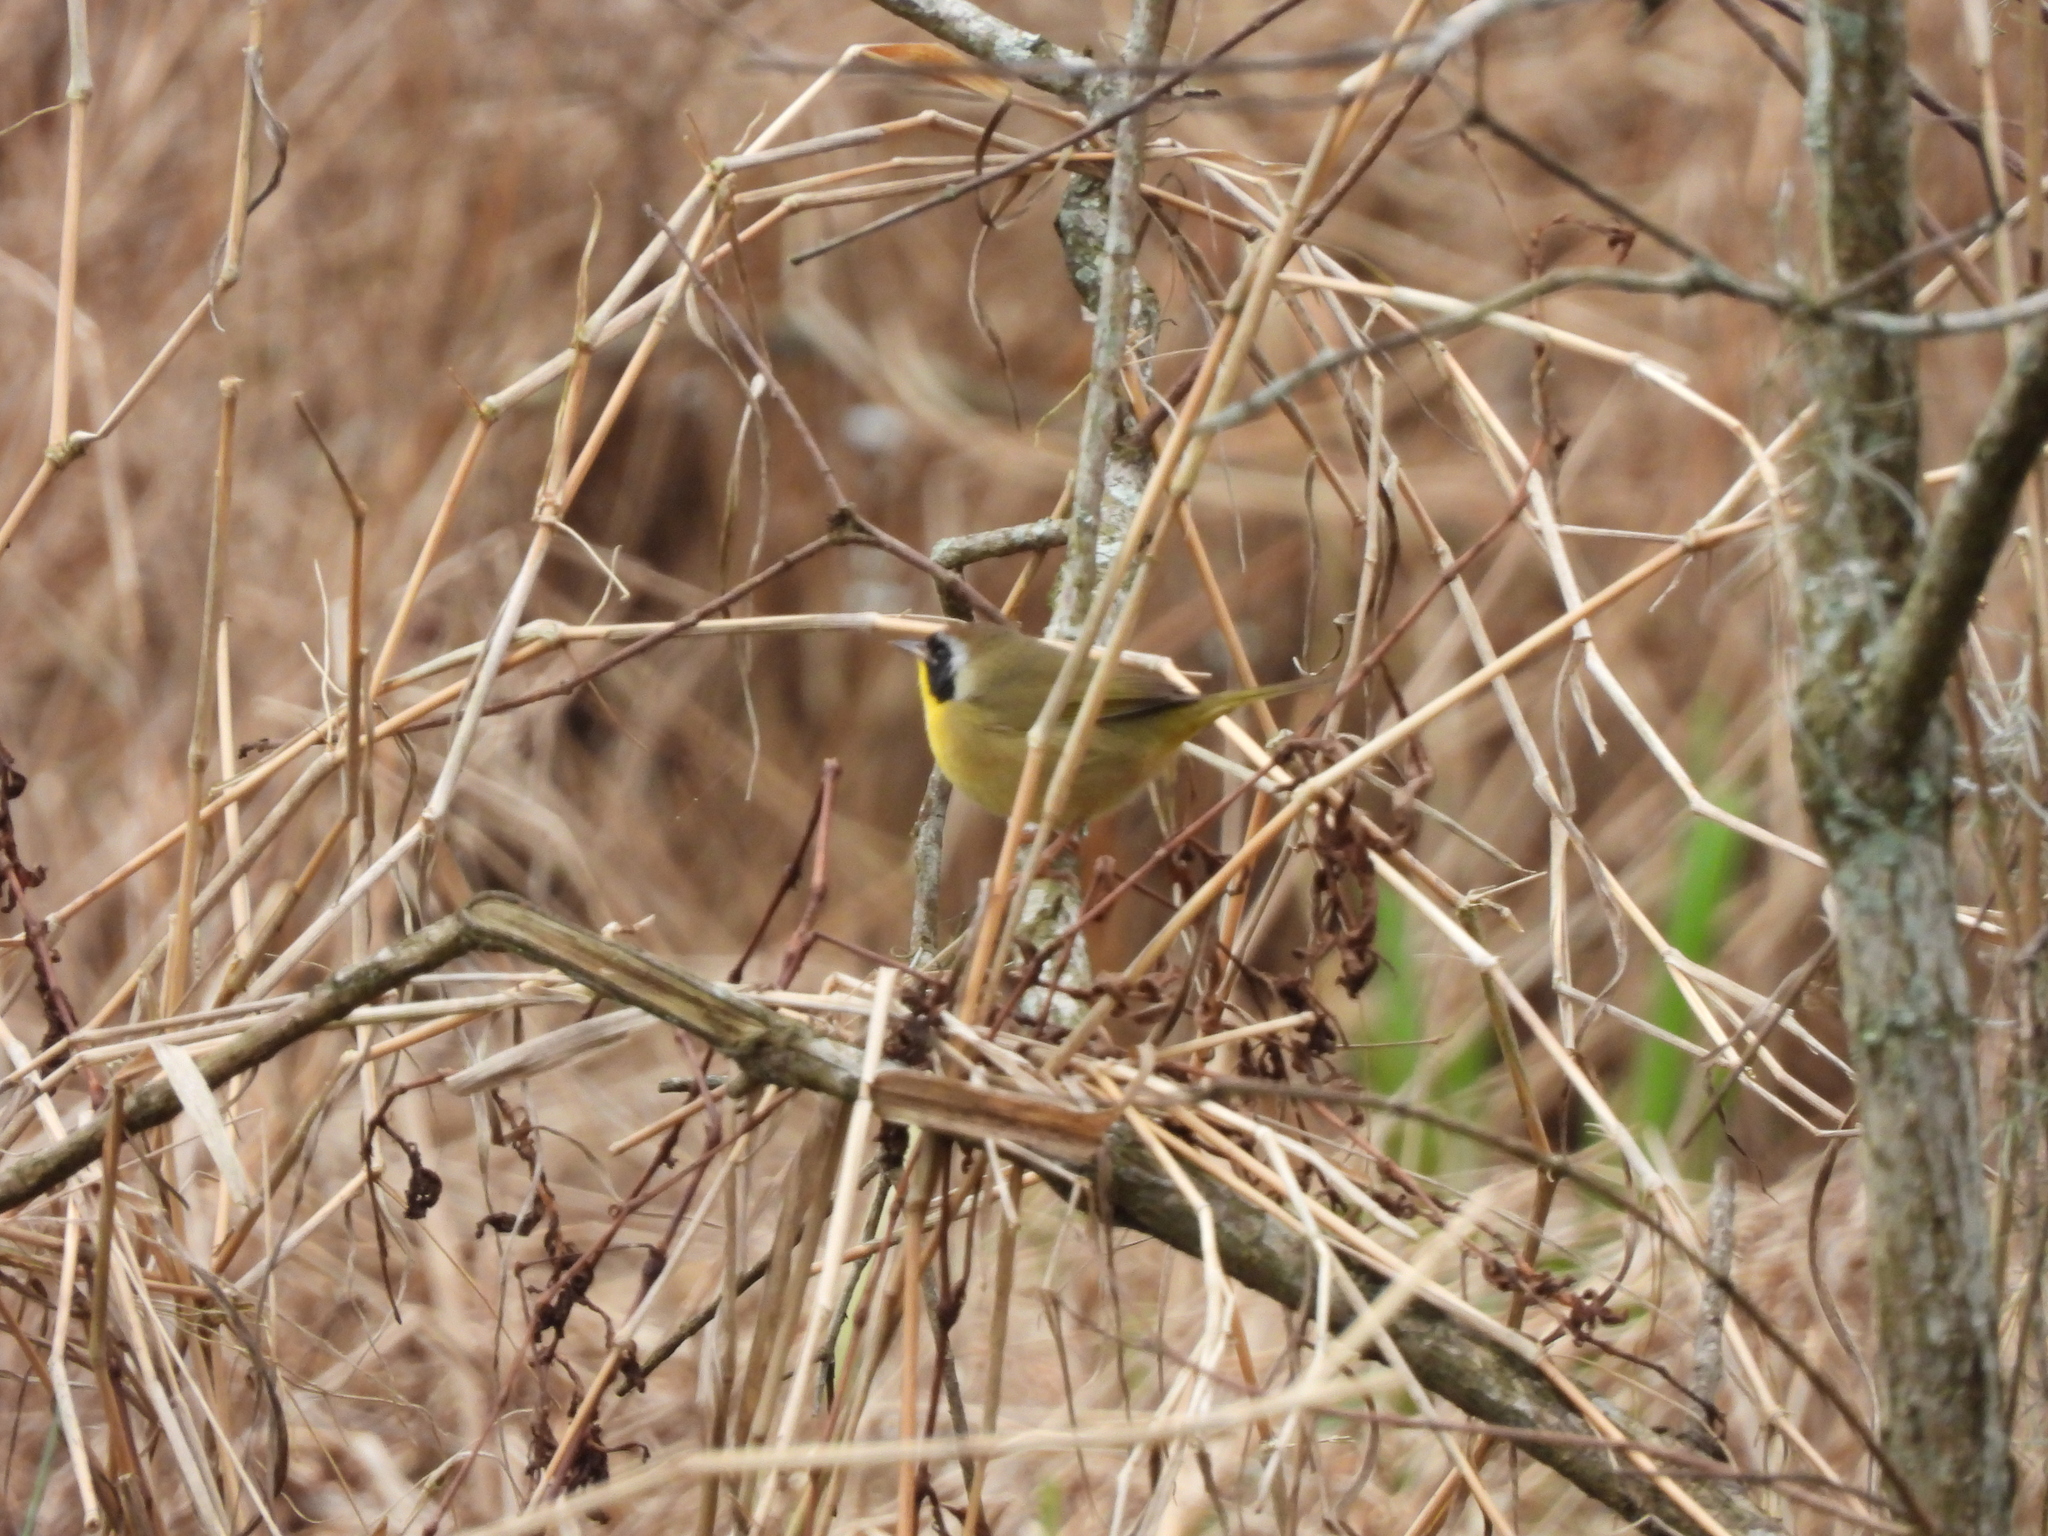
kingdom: Animalia
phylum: Chordata
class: Aves
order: Passeriformes
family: Parulidae
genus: Geothlypis
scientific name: Geothlypis trichas
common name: Common yellowthroat
